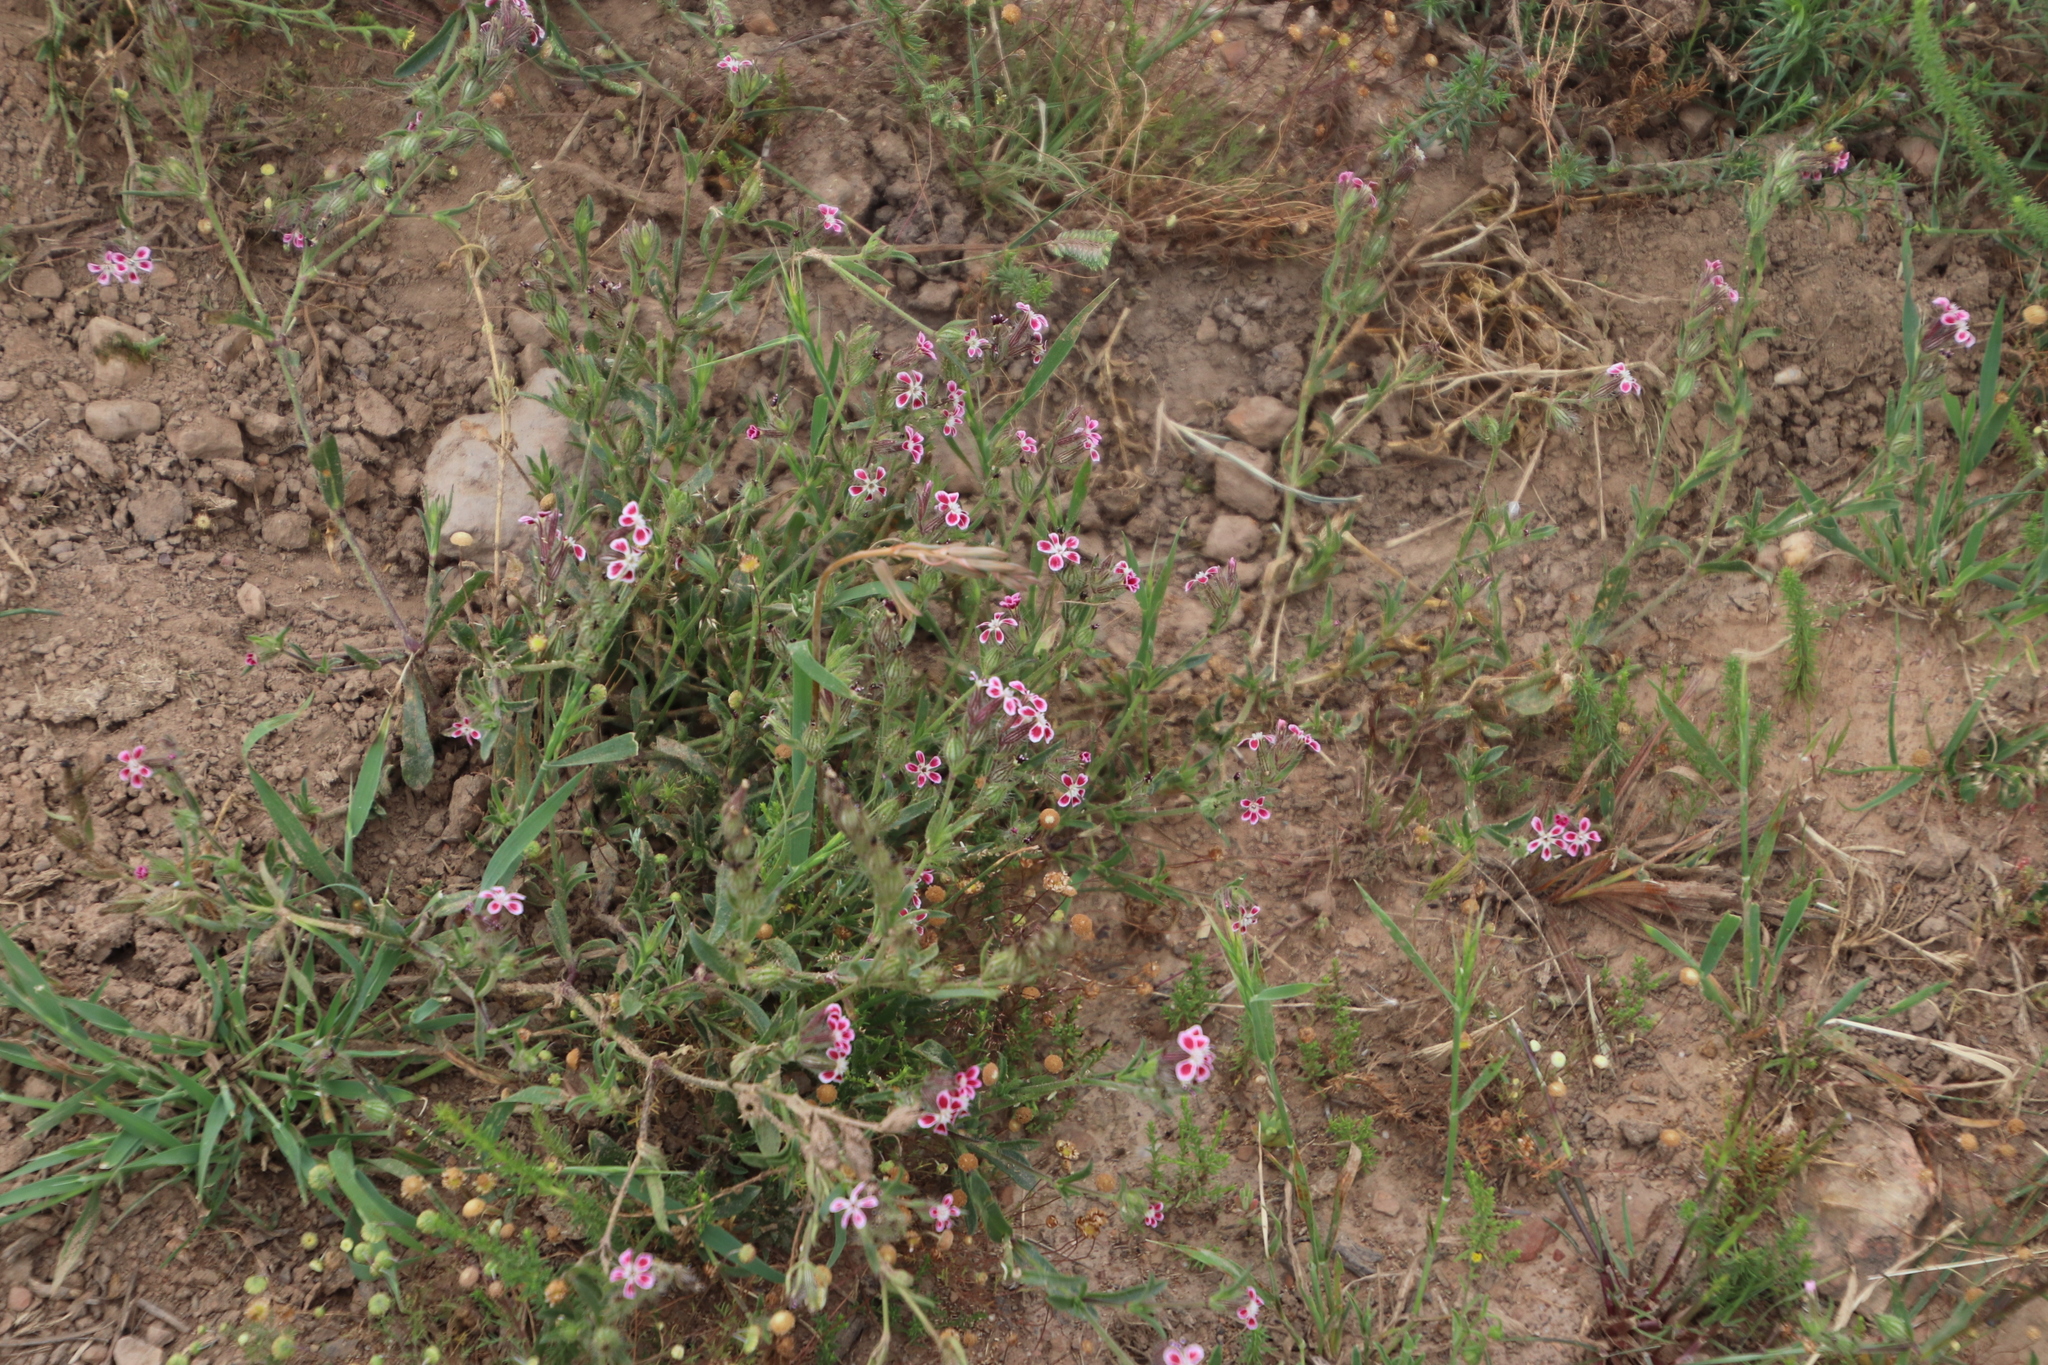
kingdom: Plantae
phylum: Tracheophyta
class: Magnoliopsida
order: Caryophyllales
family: Caryophyllaceae
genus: Silene
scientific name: Silene gallica
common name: Small-flowered catchfly
